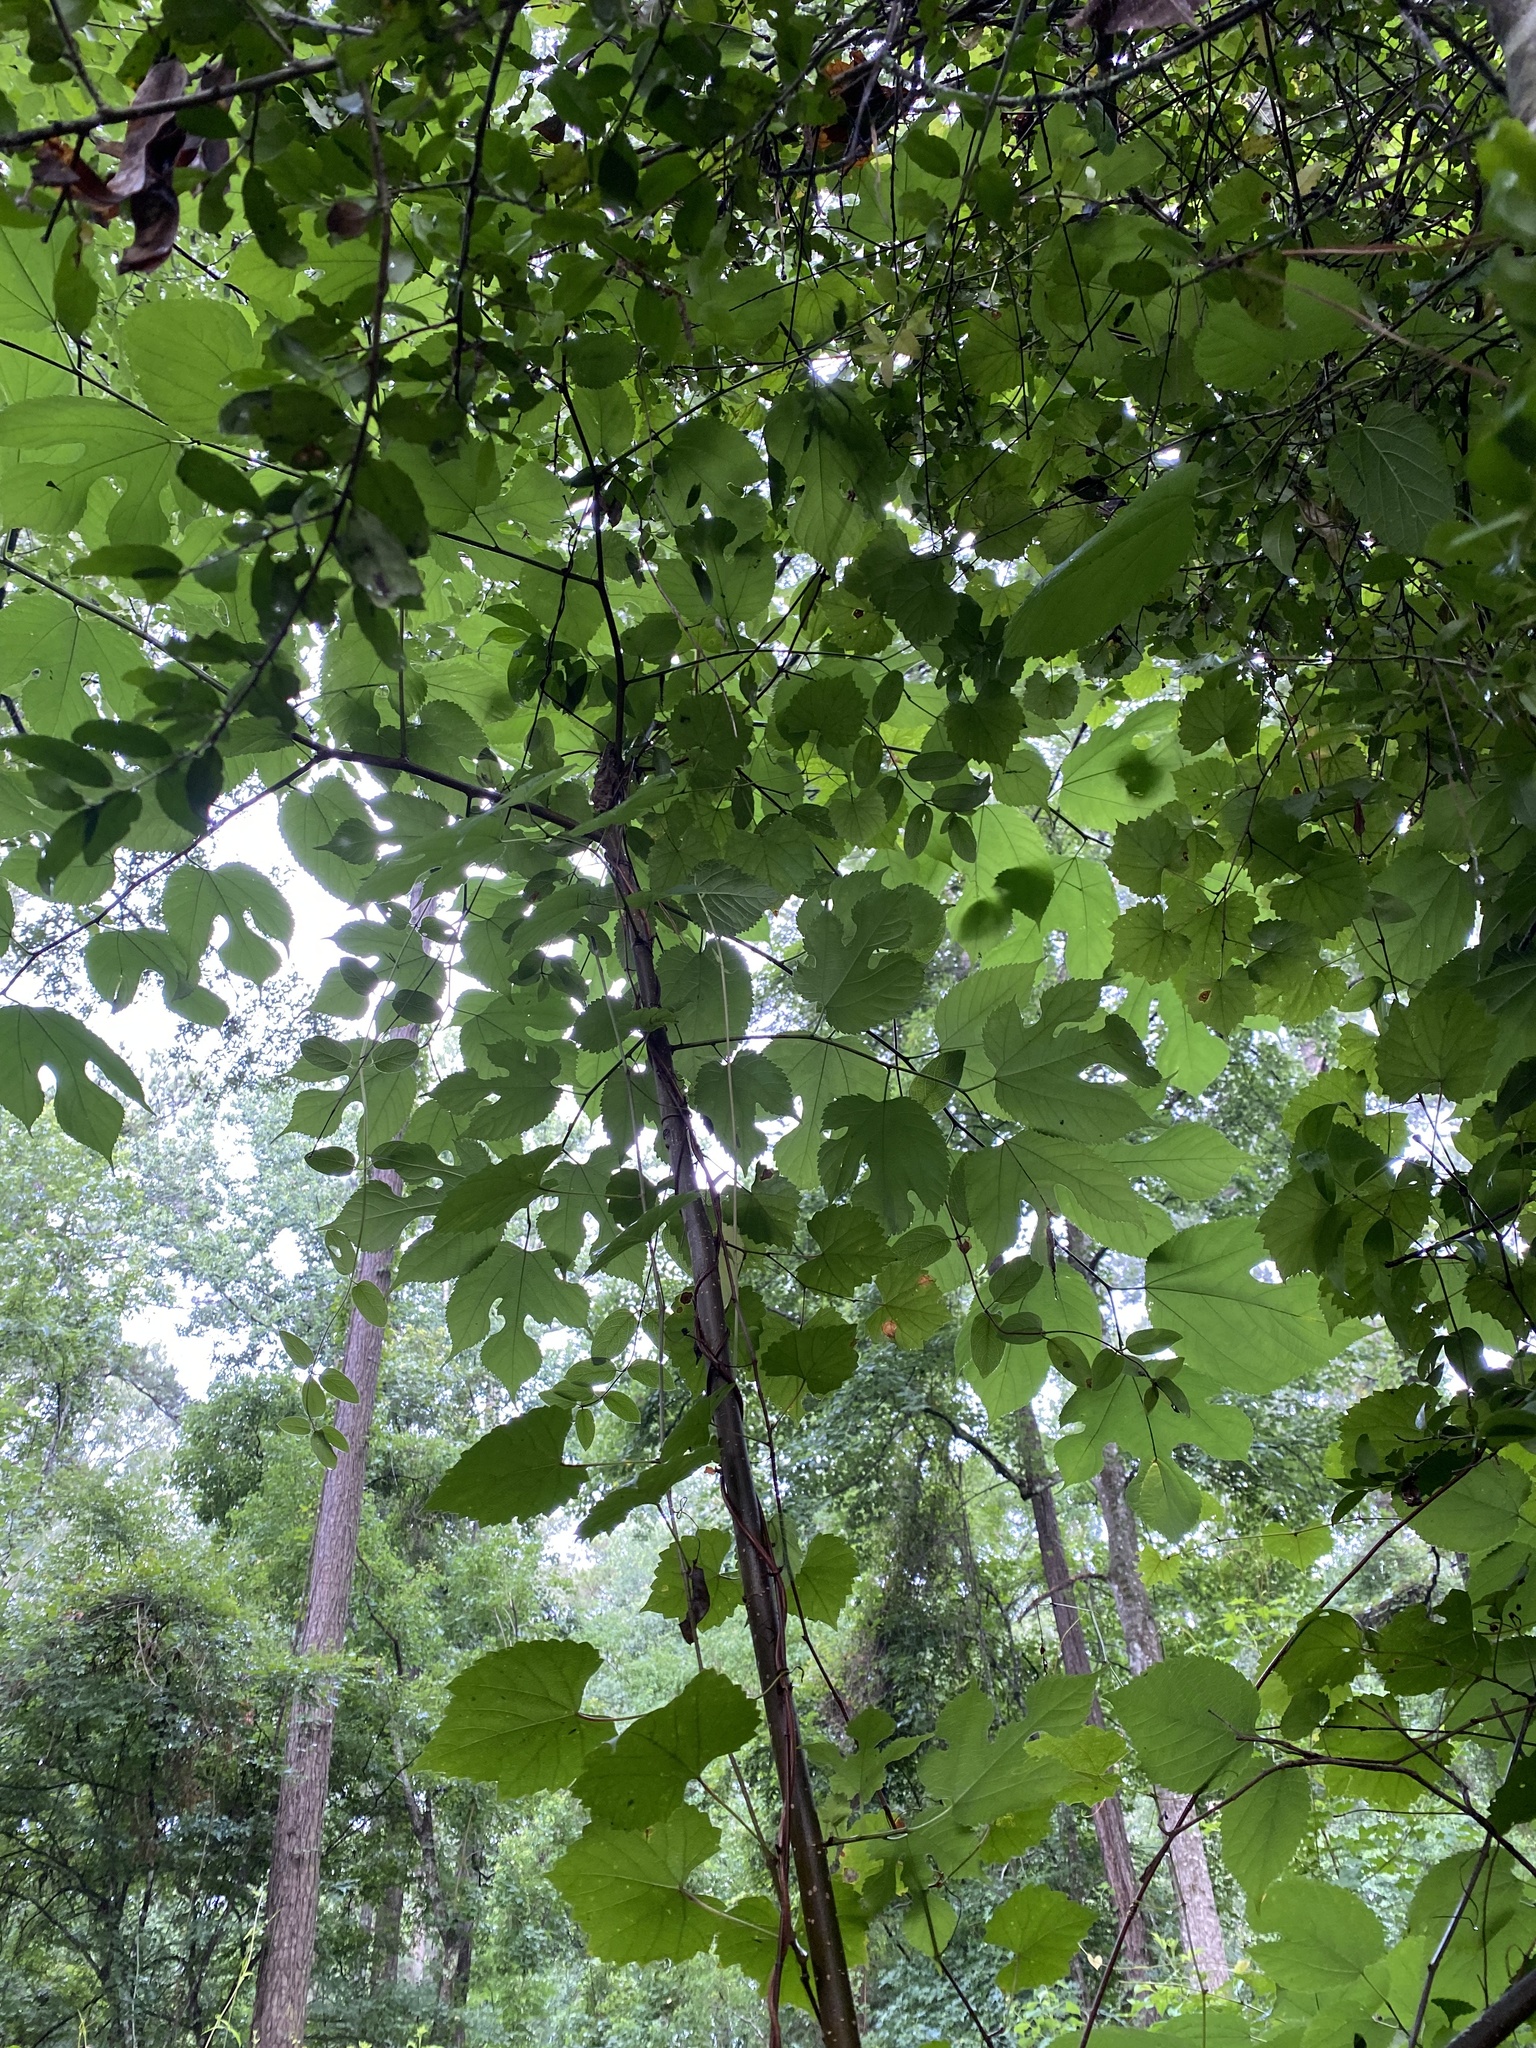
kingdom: Plantae
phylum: Tracheophyta
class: Magnoliopsida
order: Rosales
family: Moraceae
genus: Morus
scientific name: Morus rubra
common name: Red mulberry
